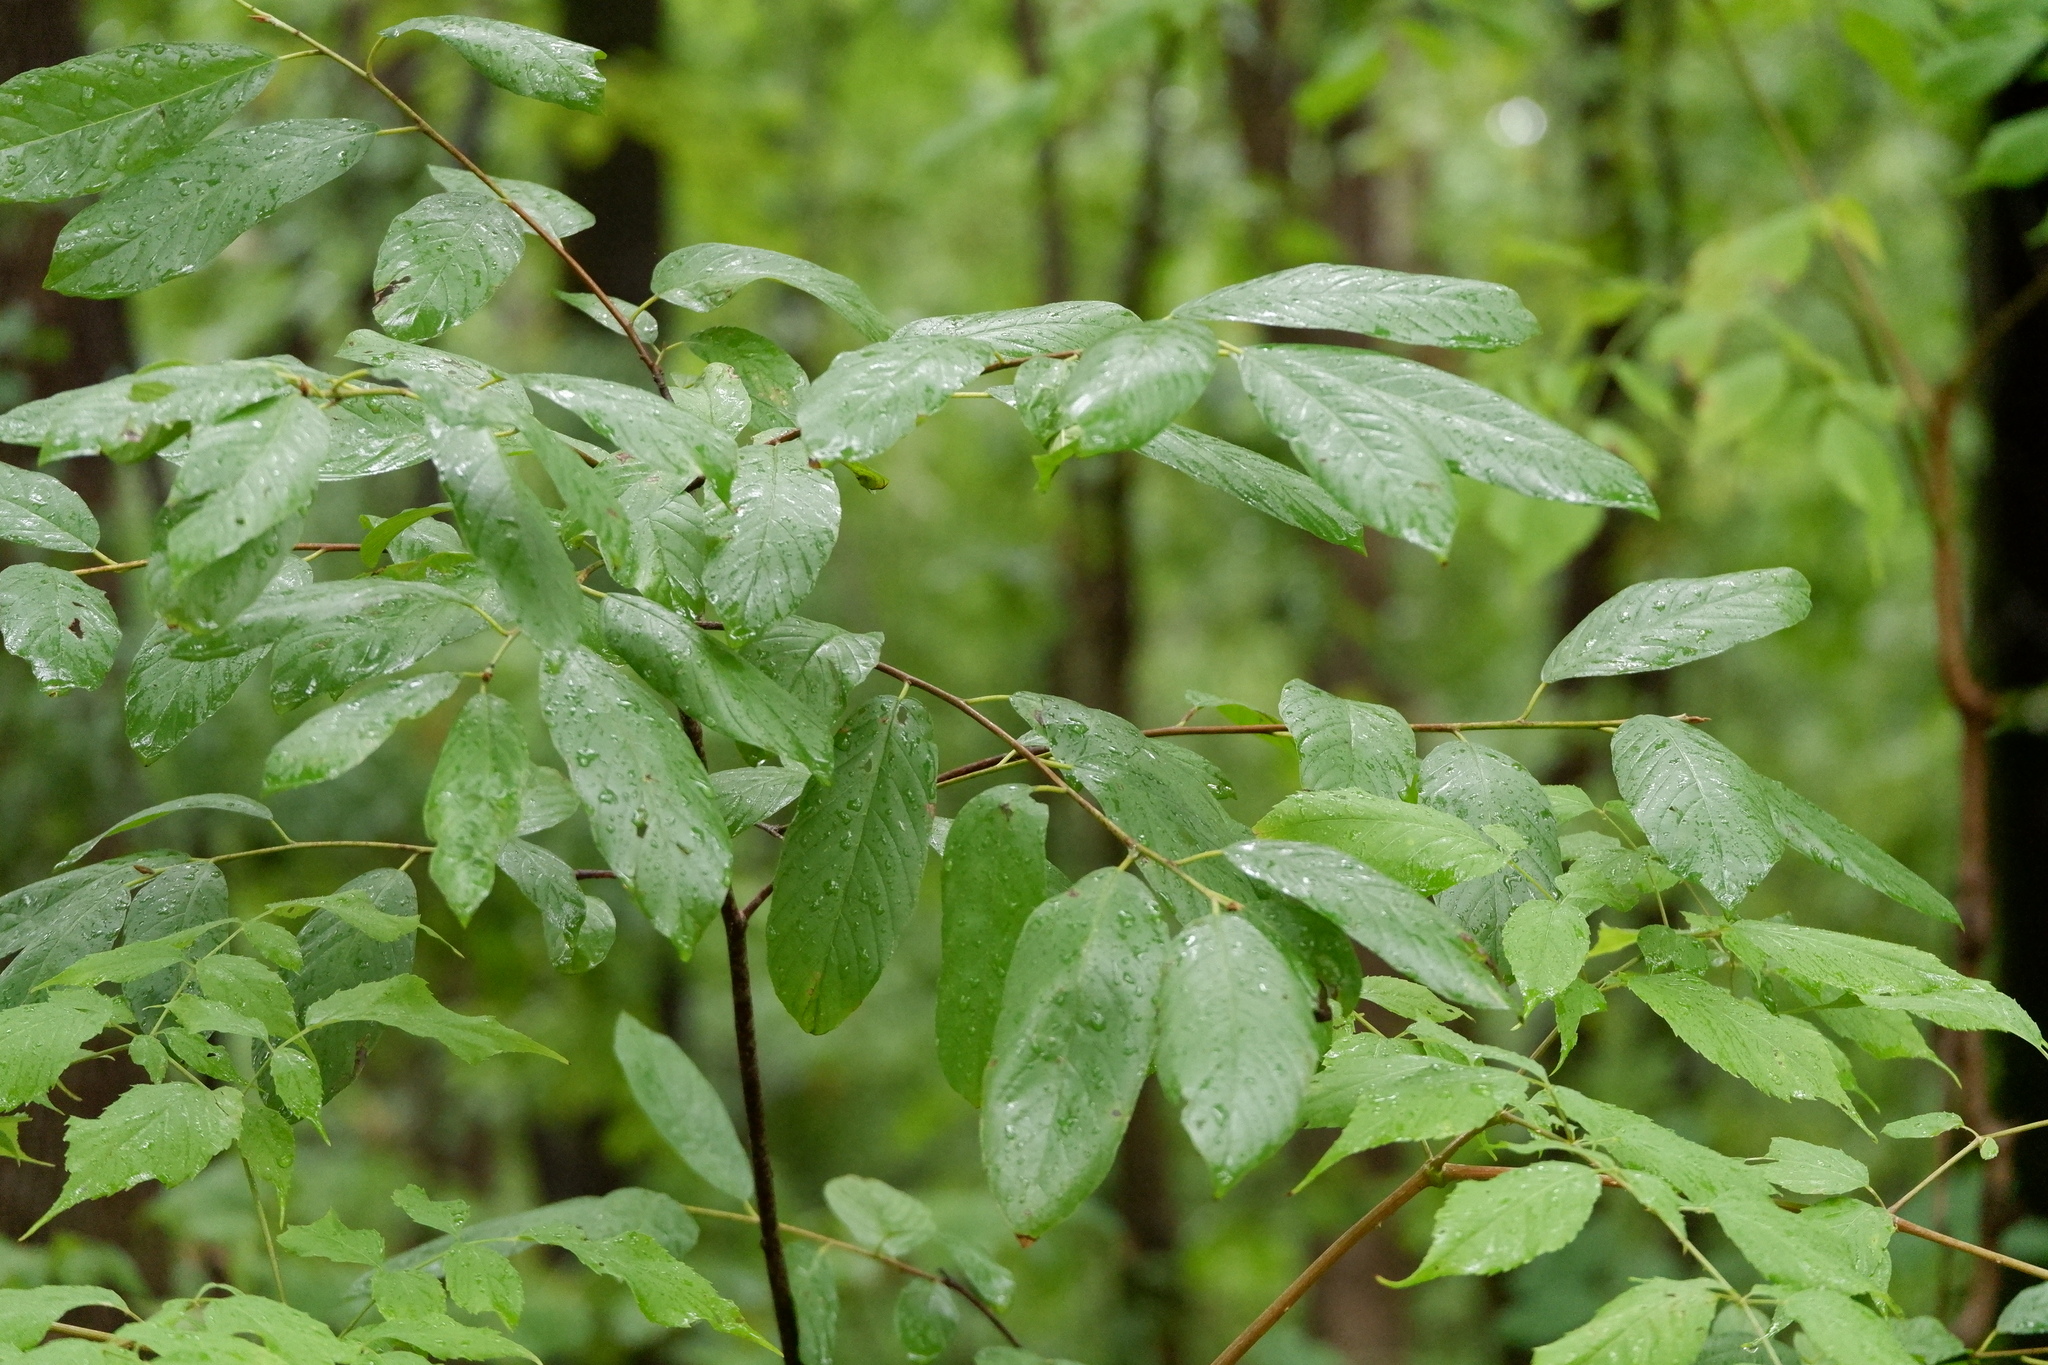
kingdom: Plantae
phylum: Tracheophyta
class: Magnoliopsida
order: Rosales
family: Rhamnaceae
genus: Frangula
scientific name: Frangula caroliniana
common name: Carolina buckthorn
